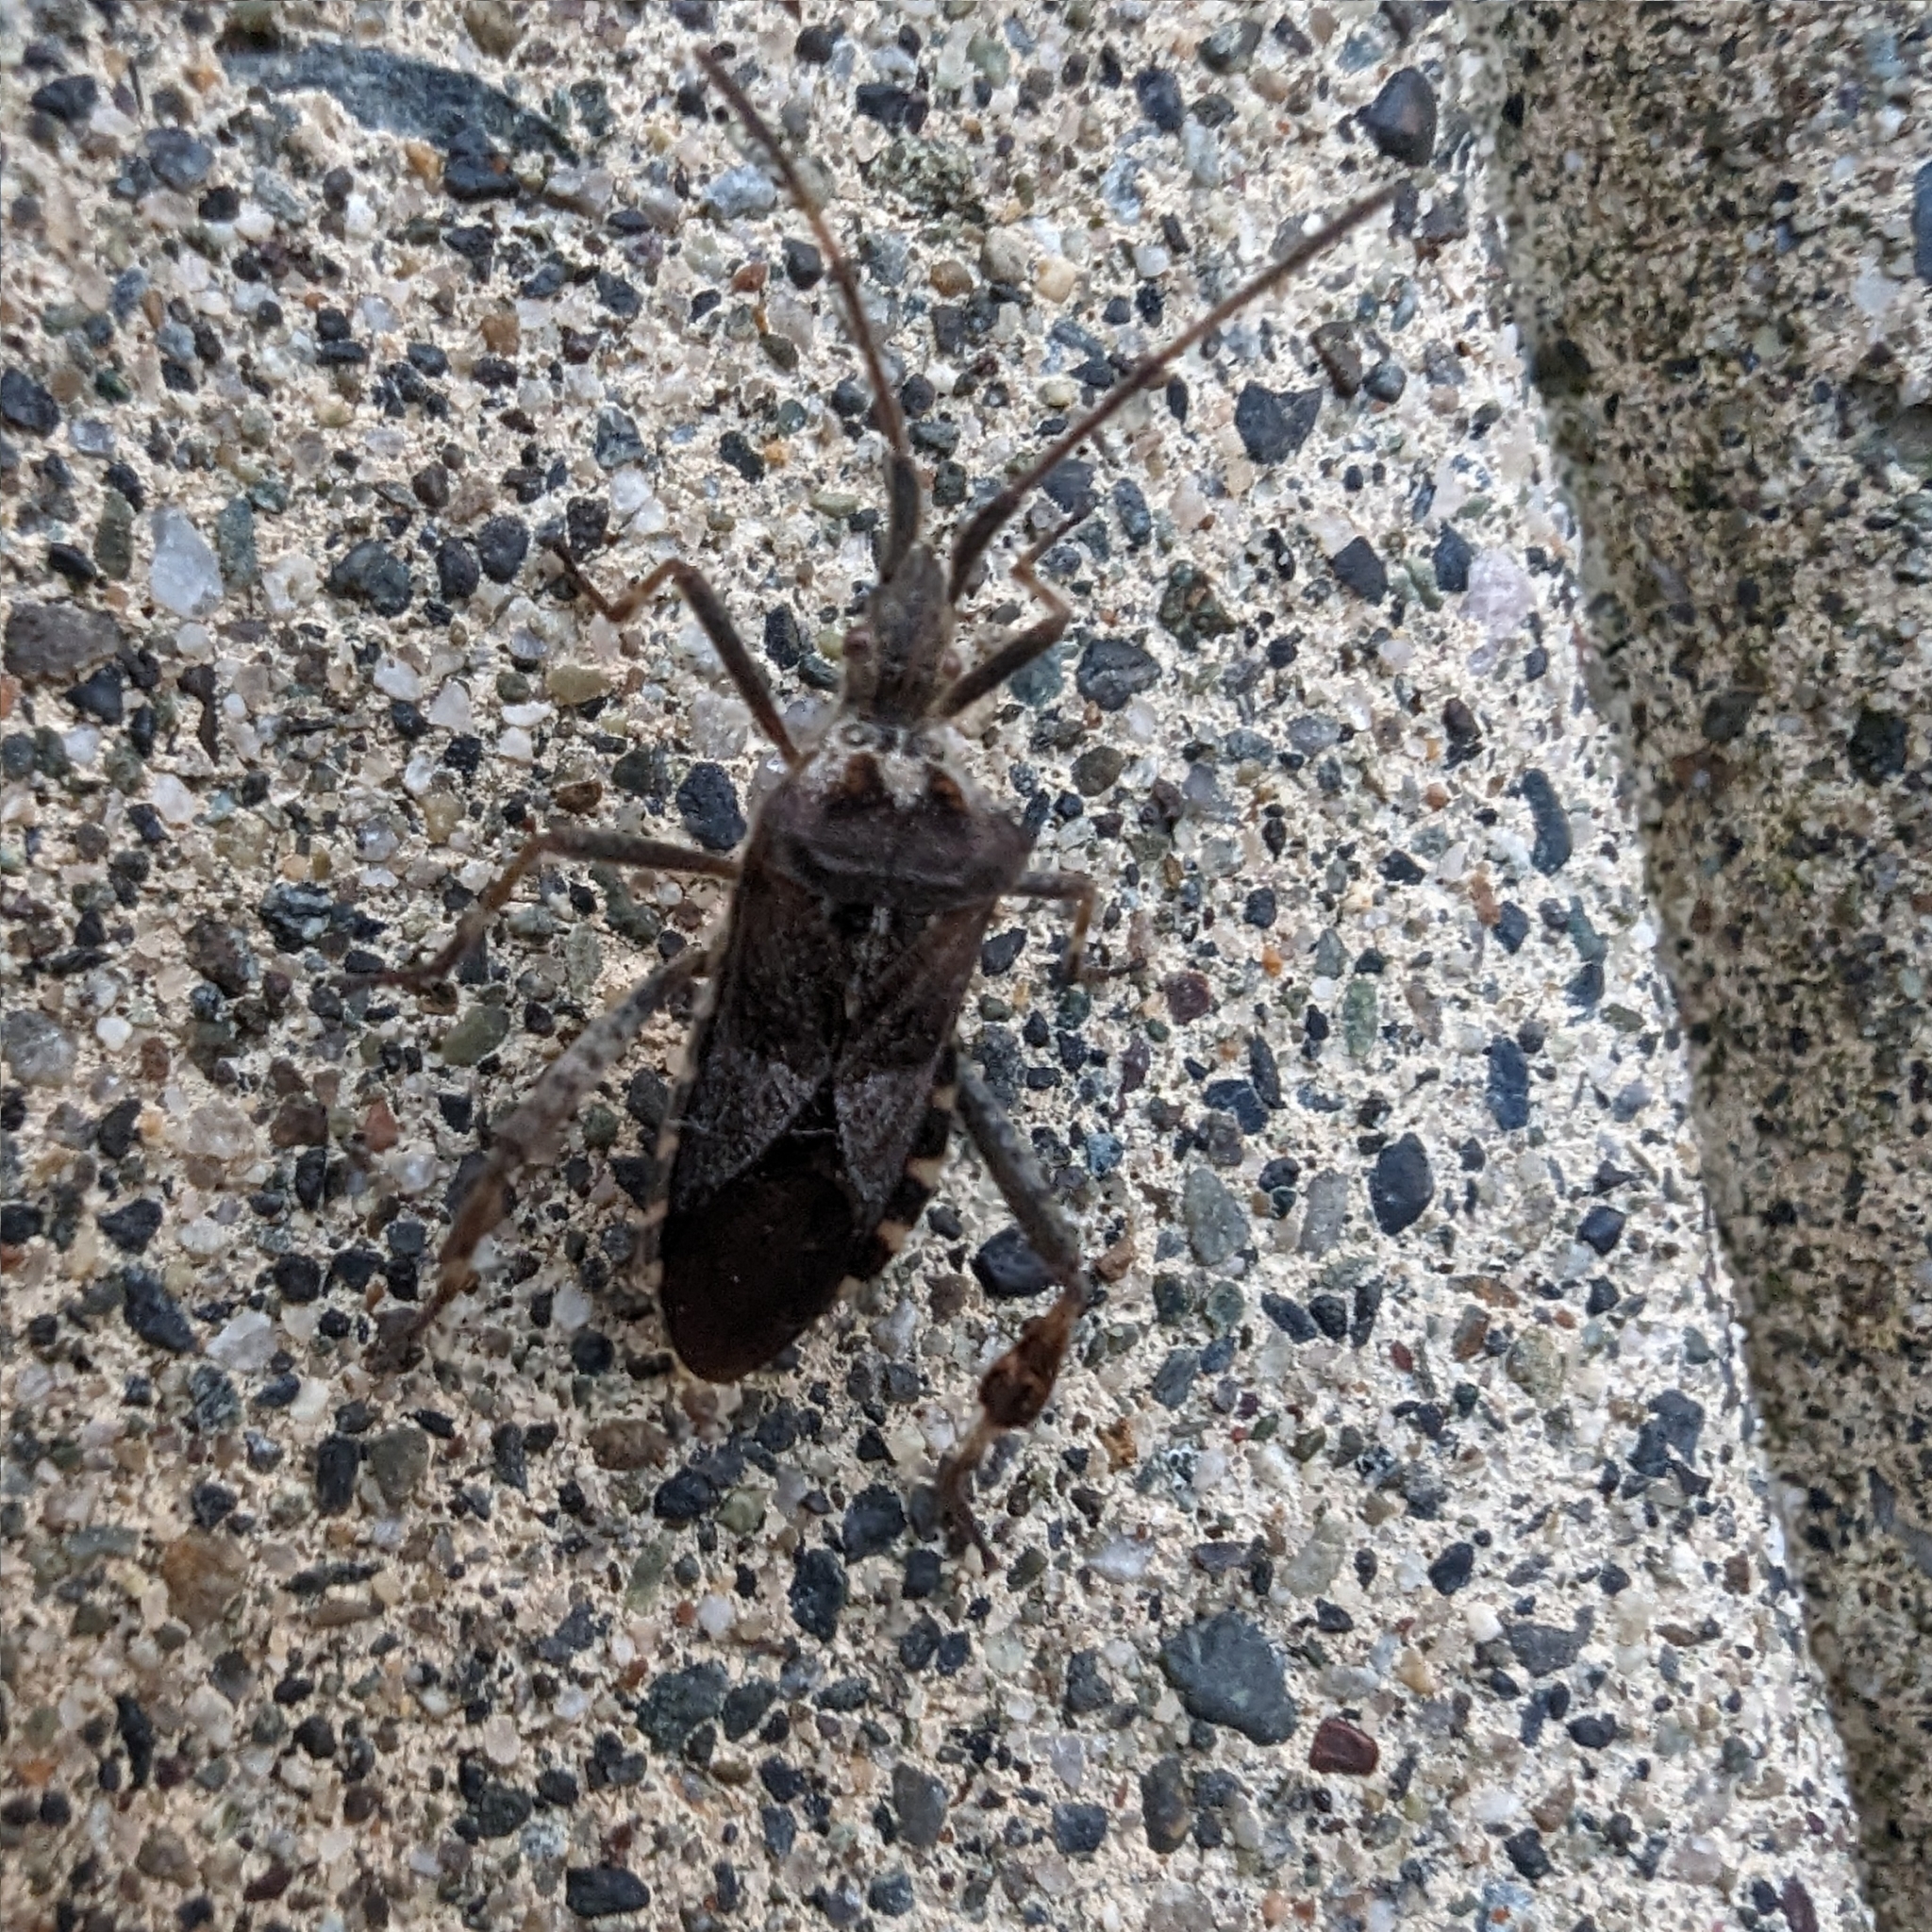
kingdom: Animalia
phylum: Arthropoda
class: Insecta
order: Hemiptera
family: Coreidae
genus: Leptoglossus
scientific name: Leptoglossus occidentalis
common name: Western conifer-seed bug
